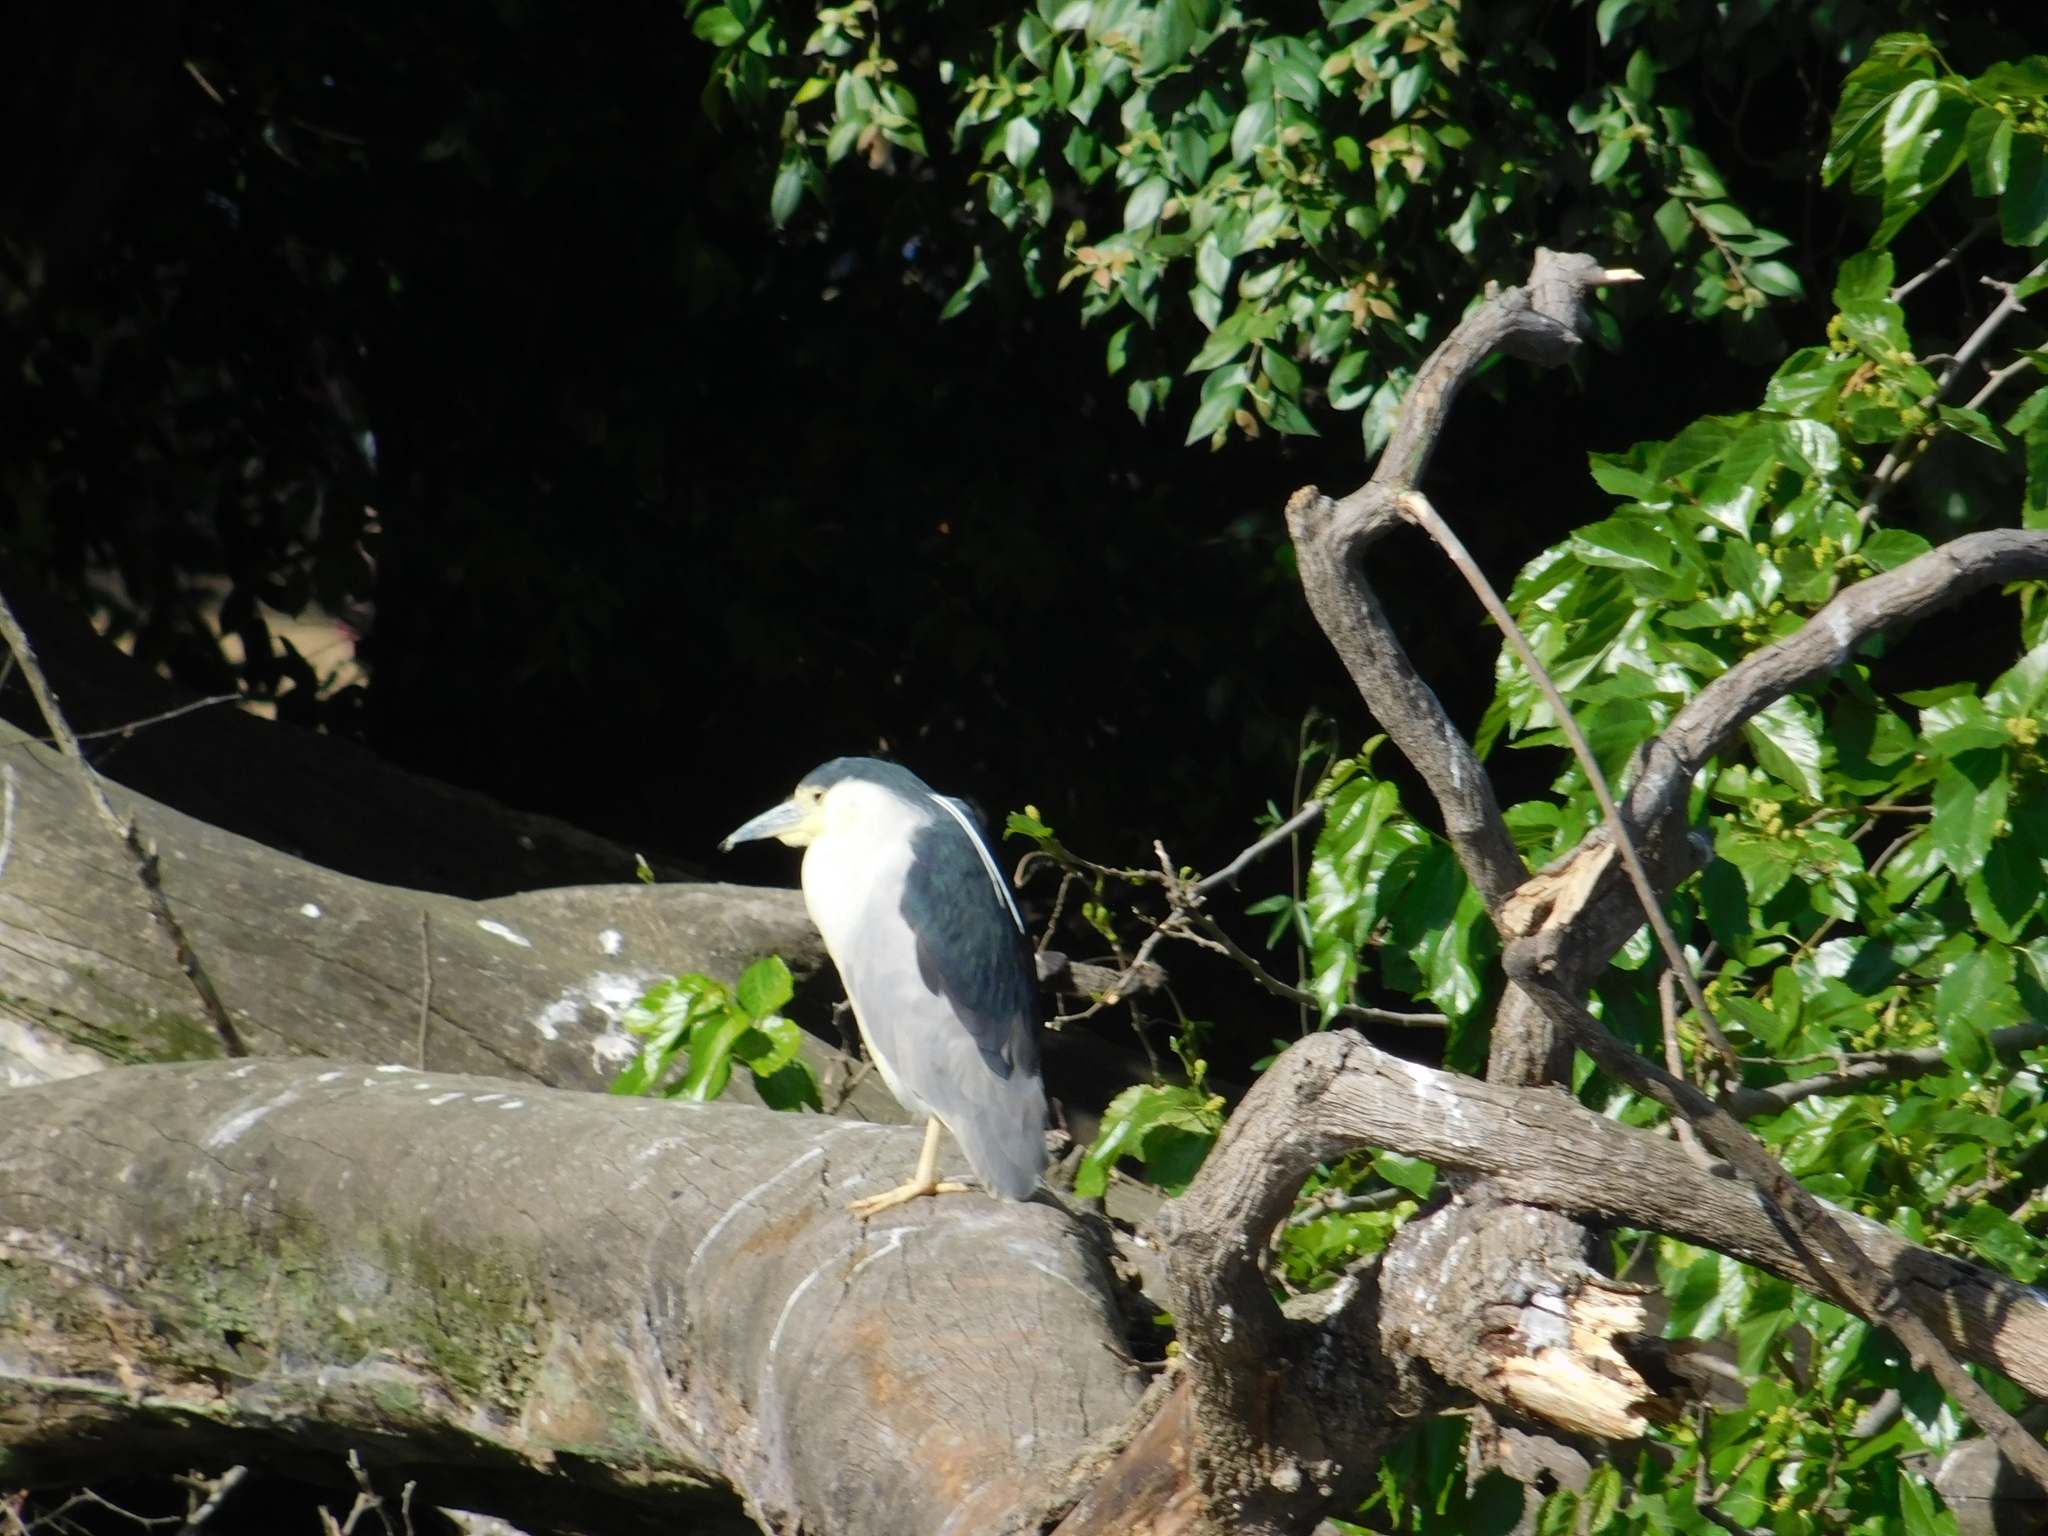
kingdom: Animalia
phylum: Chordata
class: Aves
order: Pelecaniformes
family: Ardeidae
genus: Nycticorax
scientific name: Nycticorax nycticorax
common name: Black-crowned night heron
